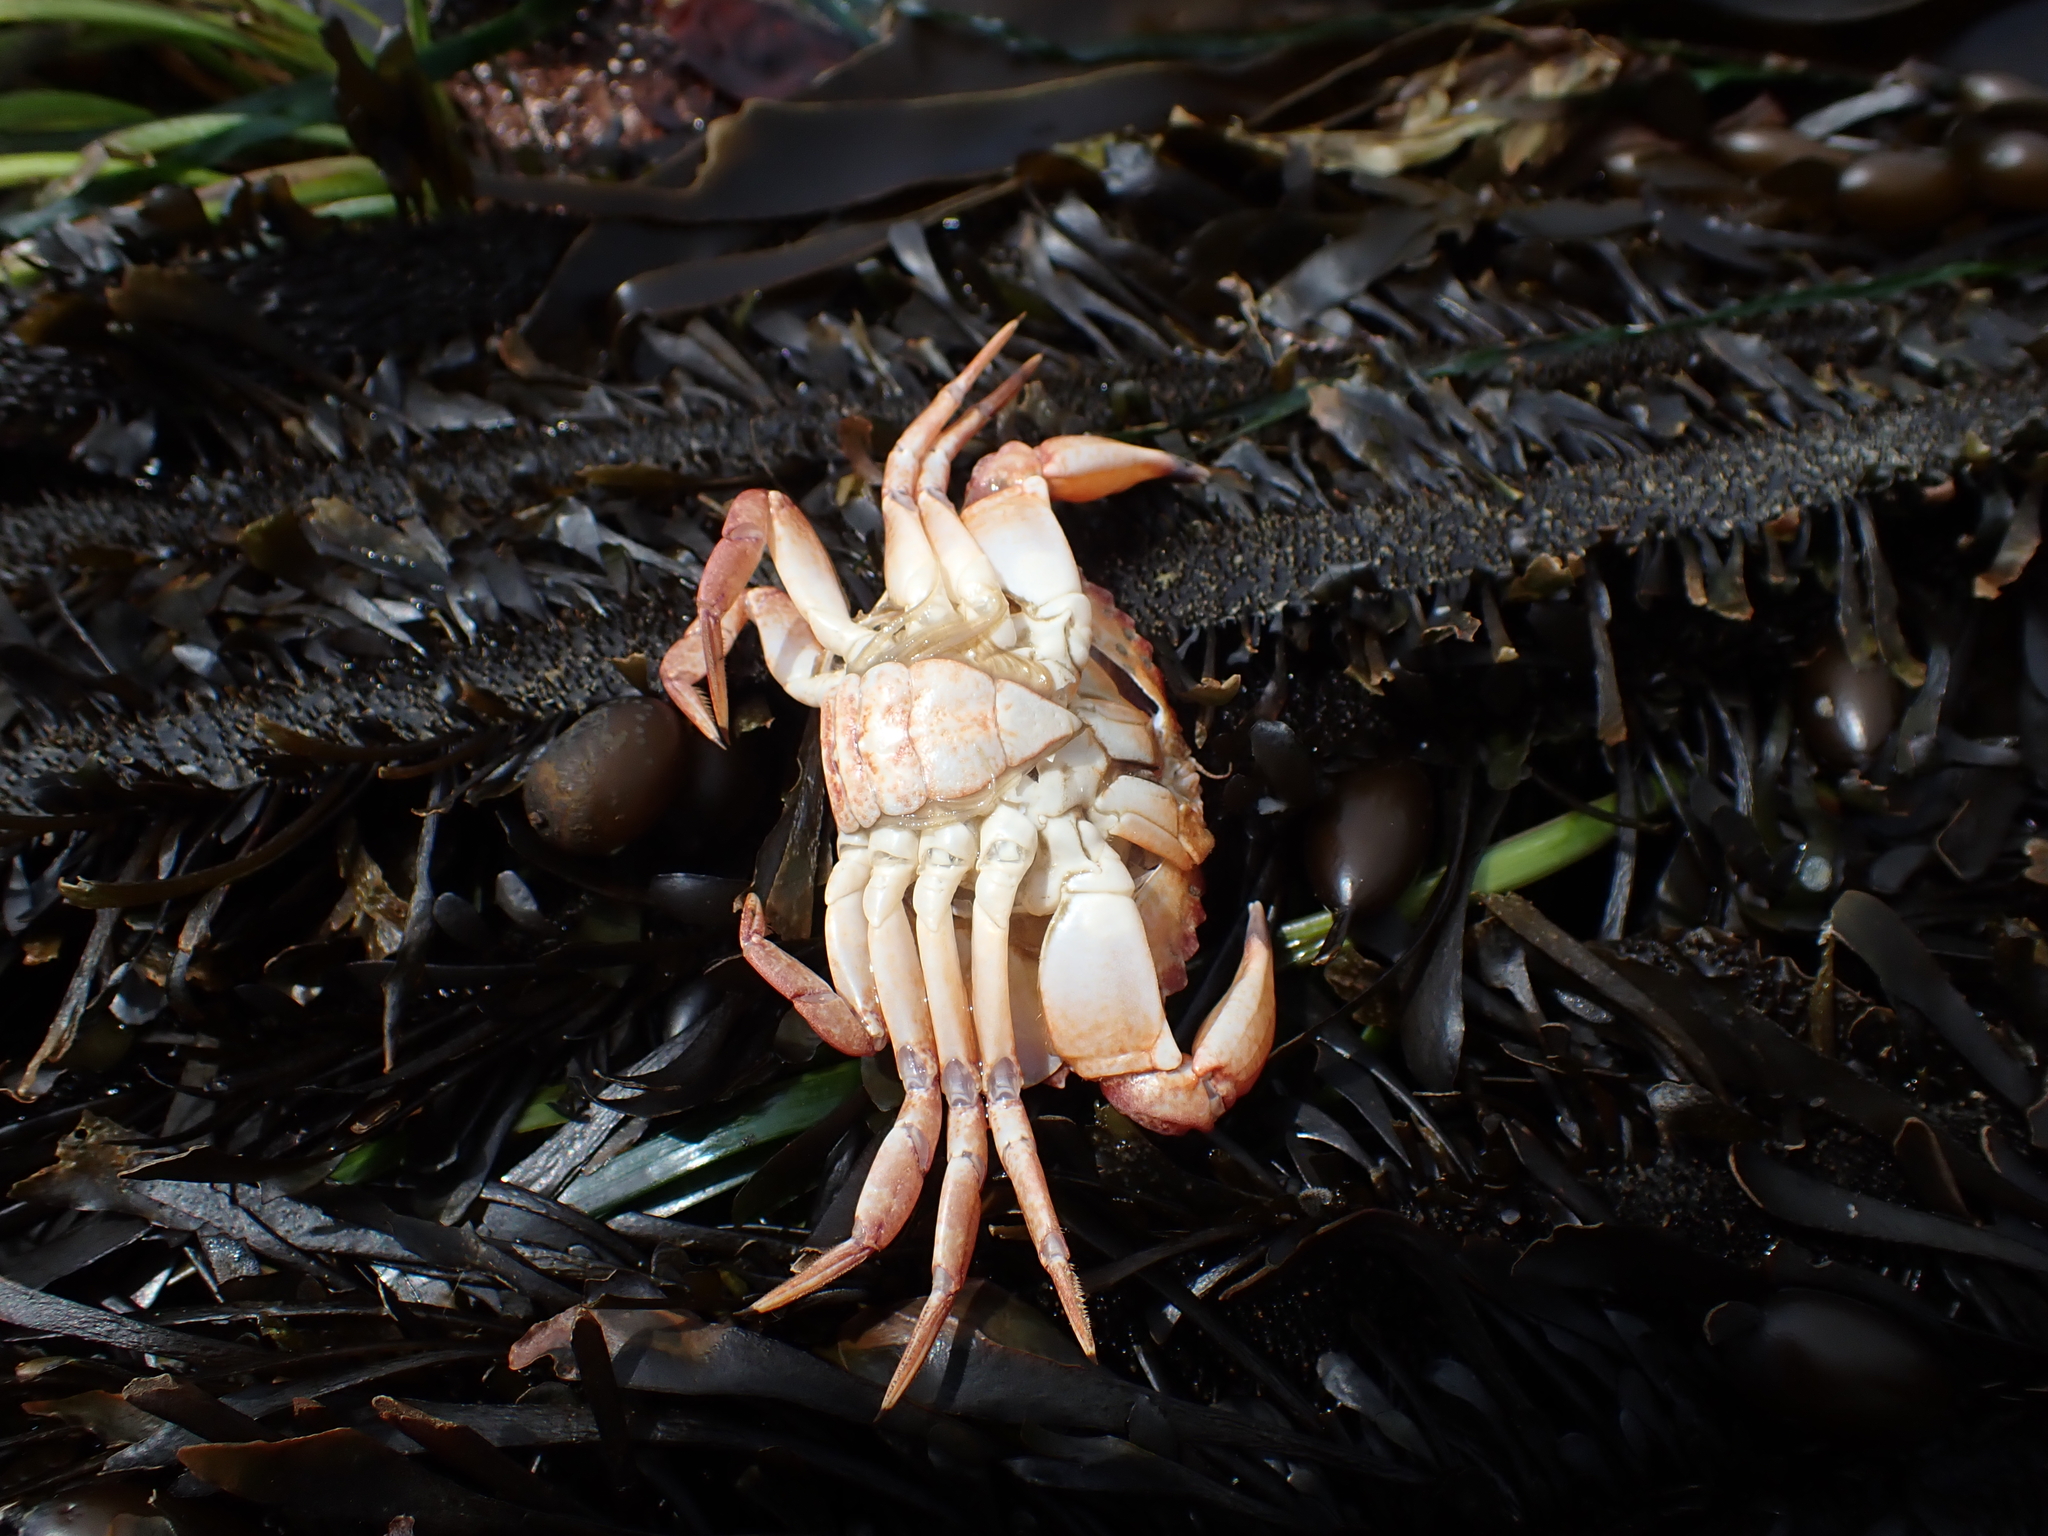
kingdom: Animalia
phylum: Arthropoda
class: Malacostraca
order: Decapoda
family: Cancridae
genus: Cancer
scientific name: Cancer productus
